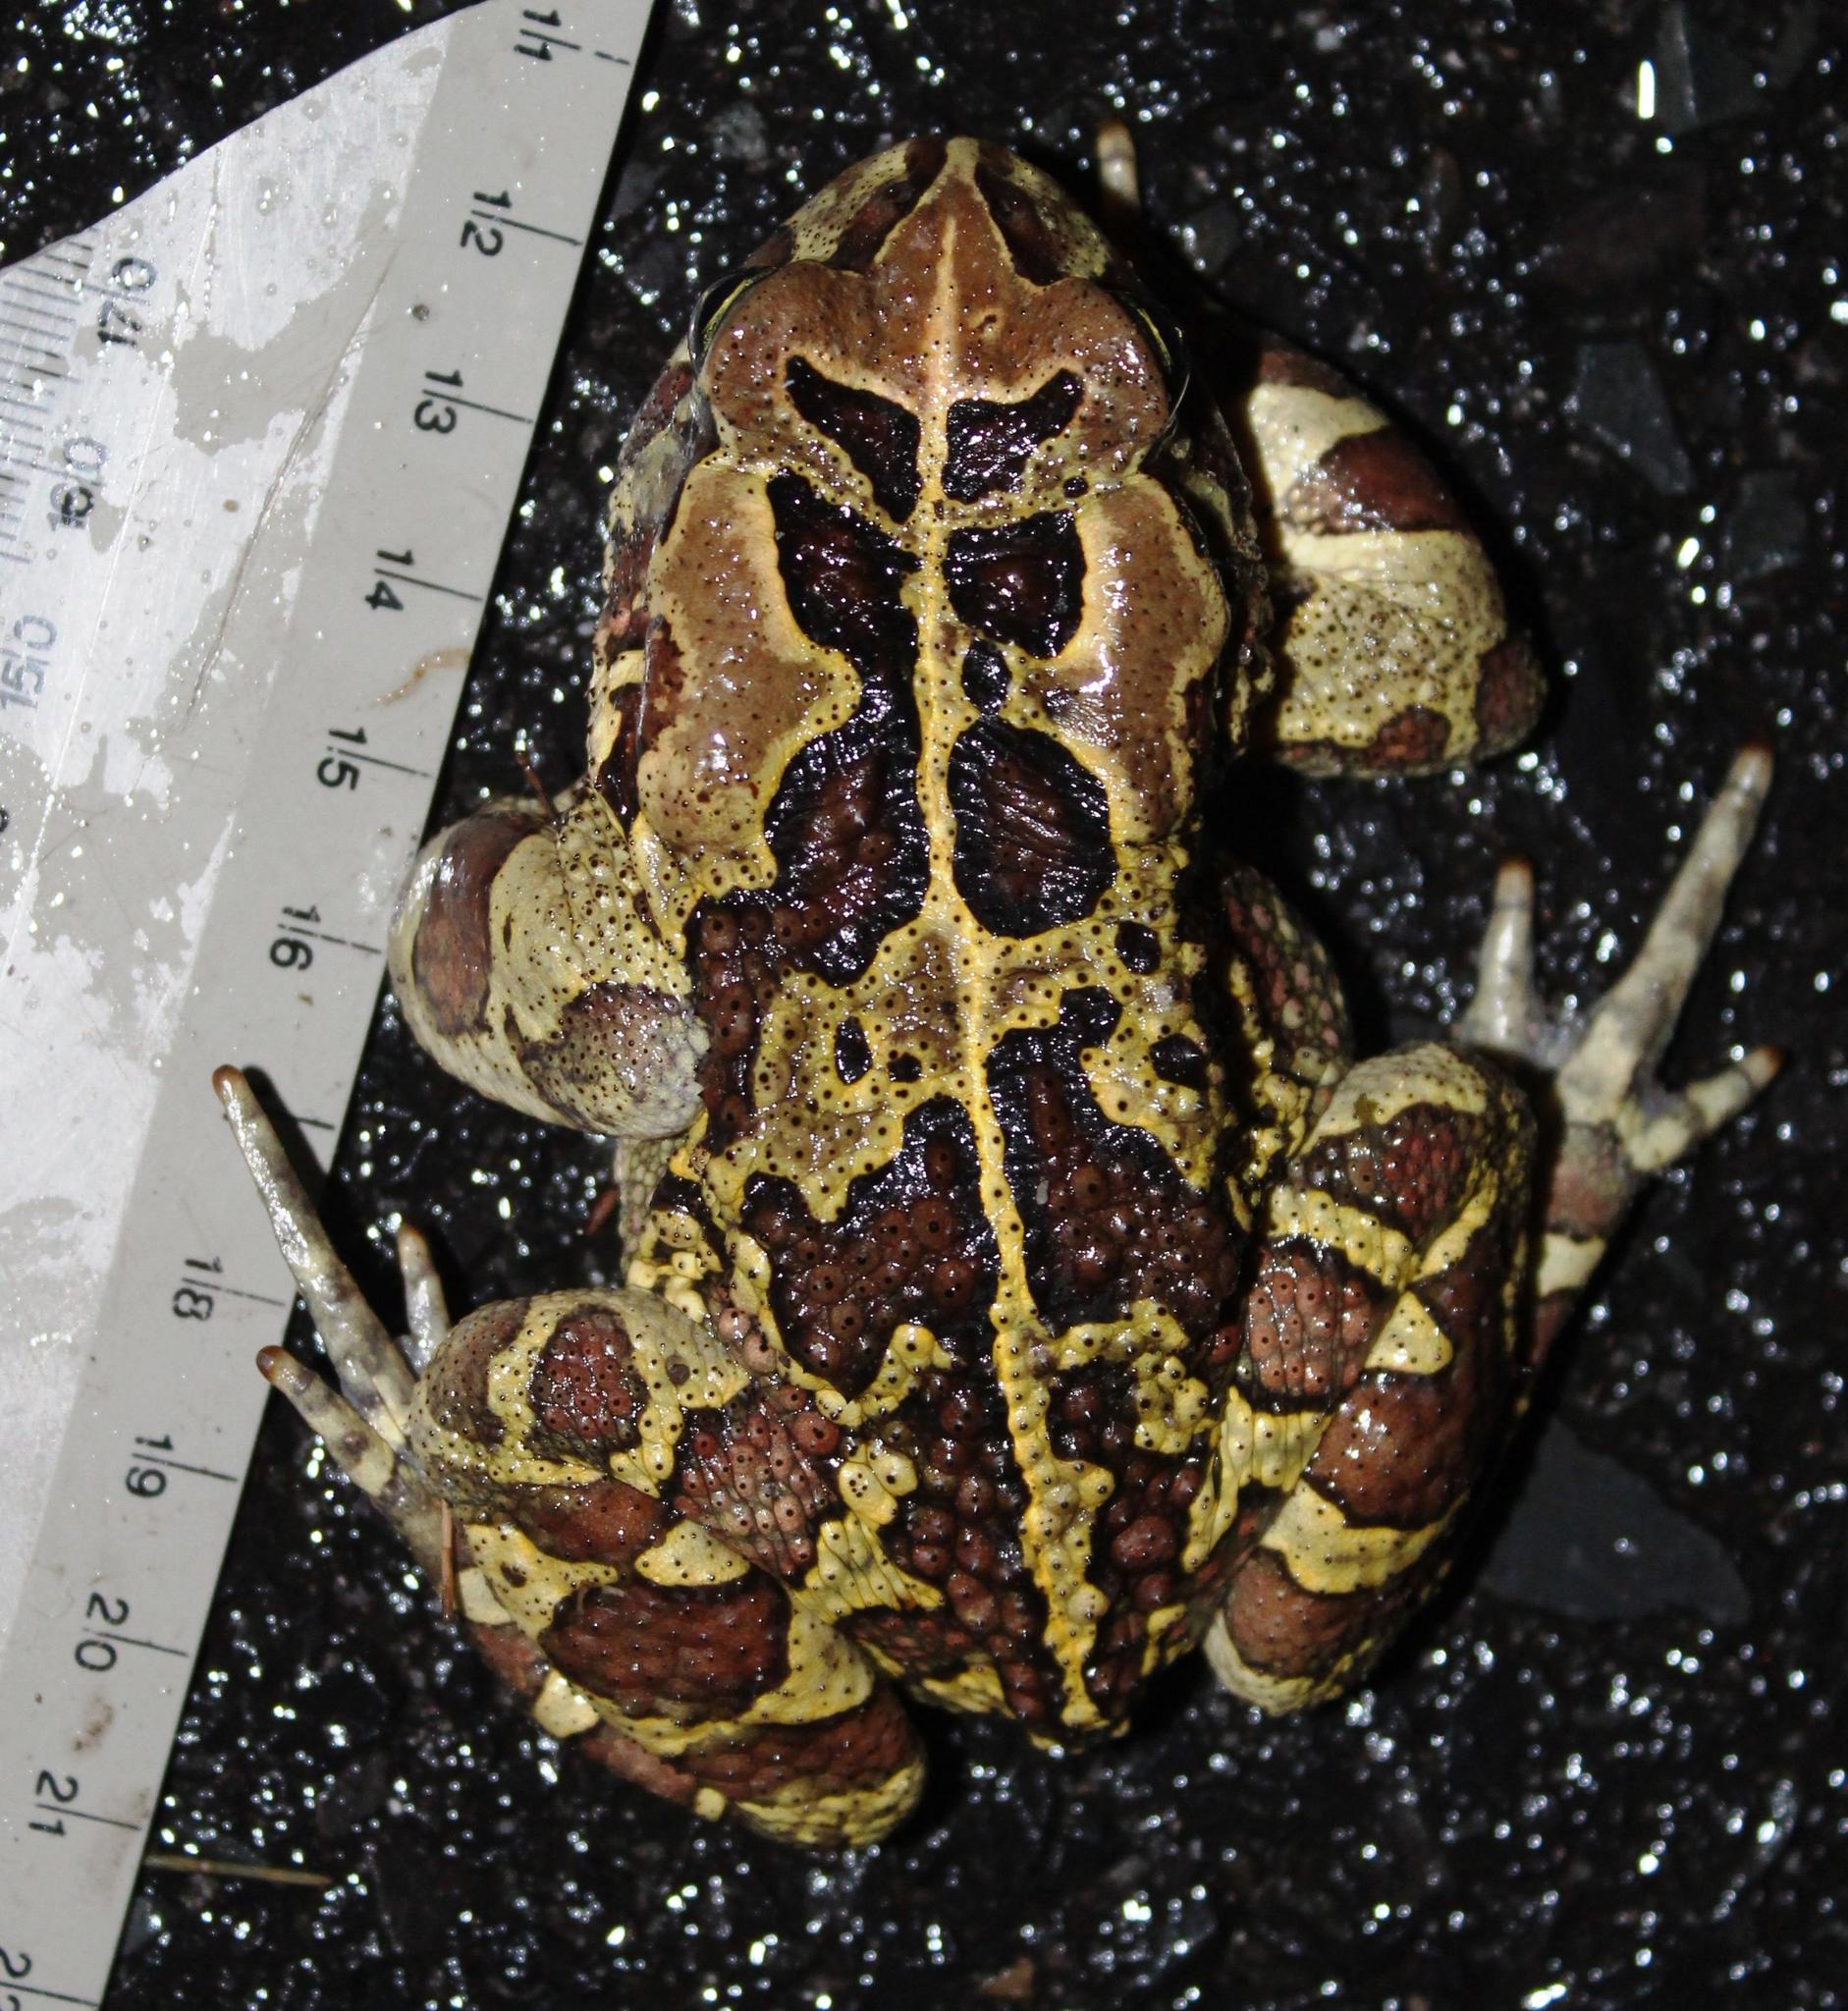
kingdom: Animalia
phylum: Chordata
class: Amphibia
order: Anura
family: Bufonidae
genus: Sclerophrys
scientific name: Sclerophrys pantherina
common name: Panther toad
